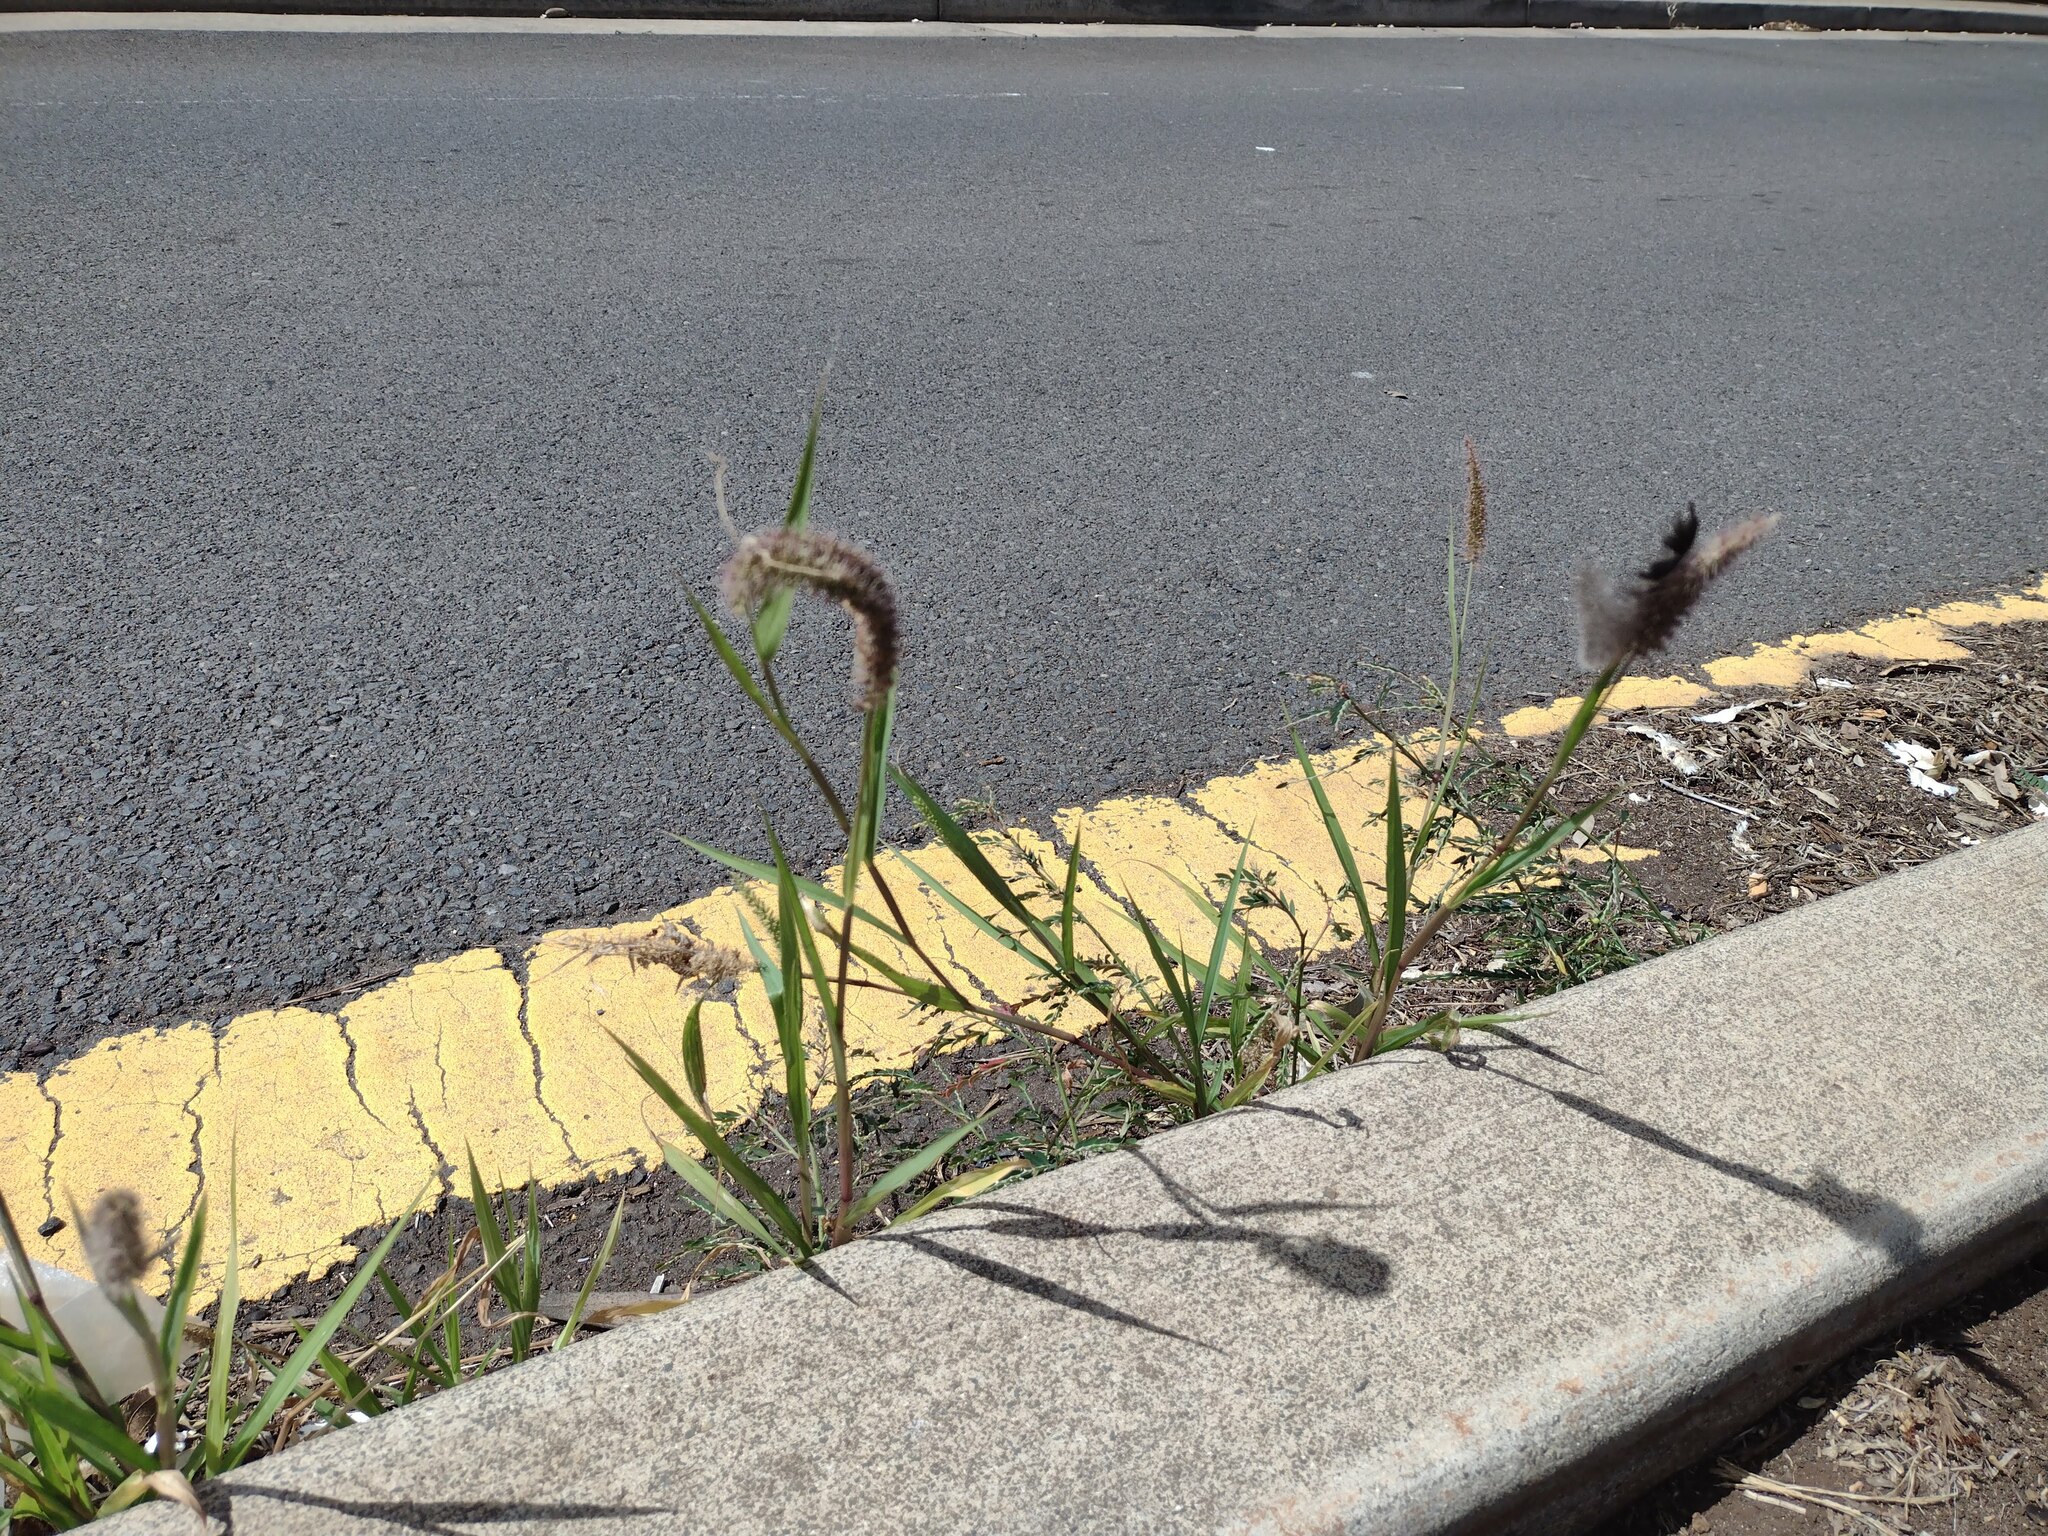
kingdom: Plantae
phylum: Tracheophyta
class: Liliopsida
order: Poales
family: Poaceae
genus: Setaria
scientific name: Setaria adhaerens
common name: Adherent bristle-grass
